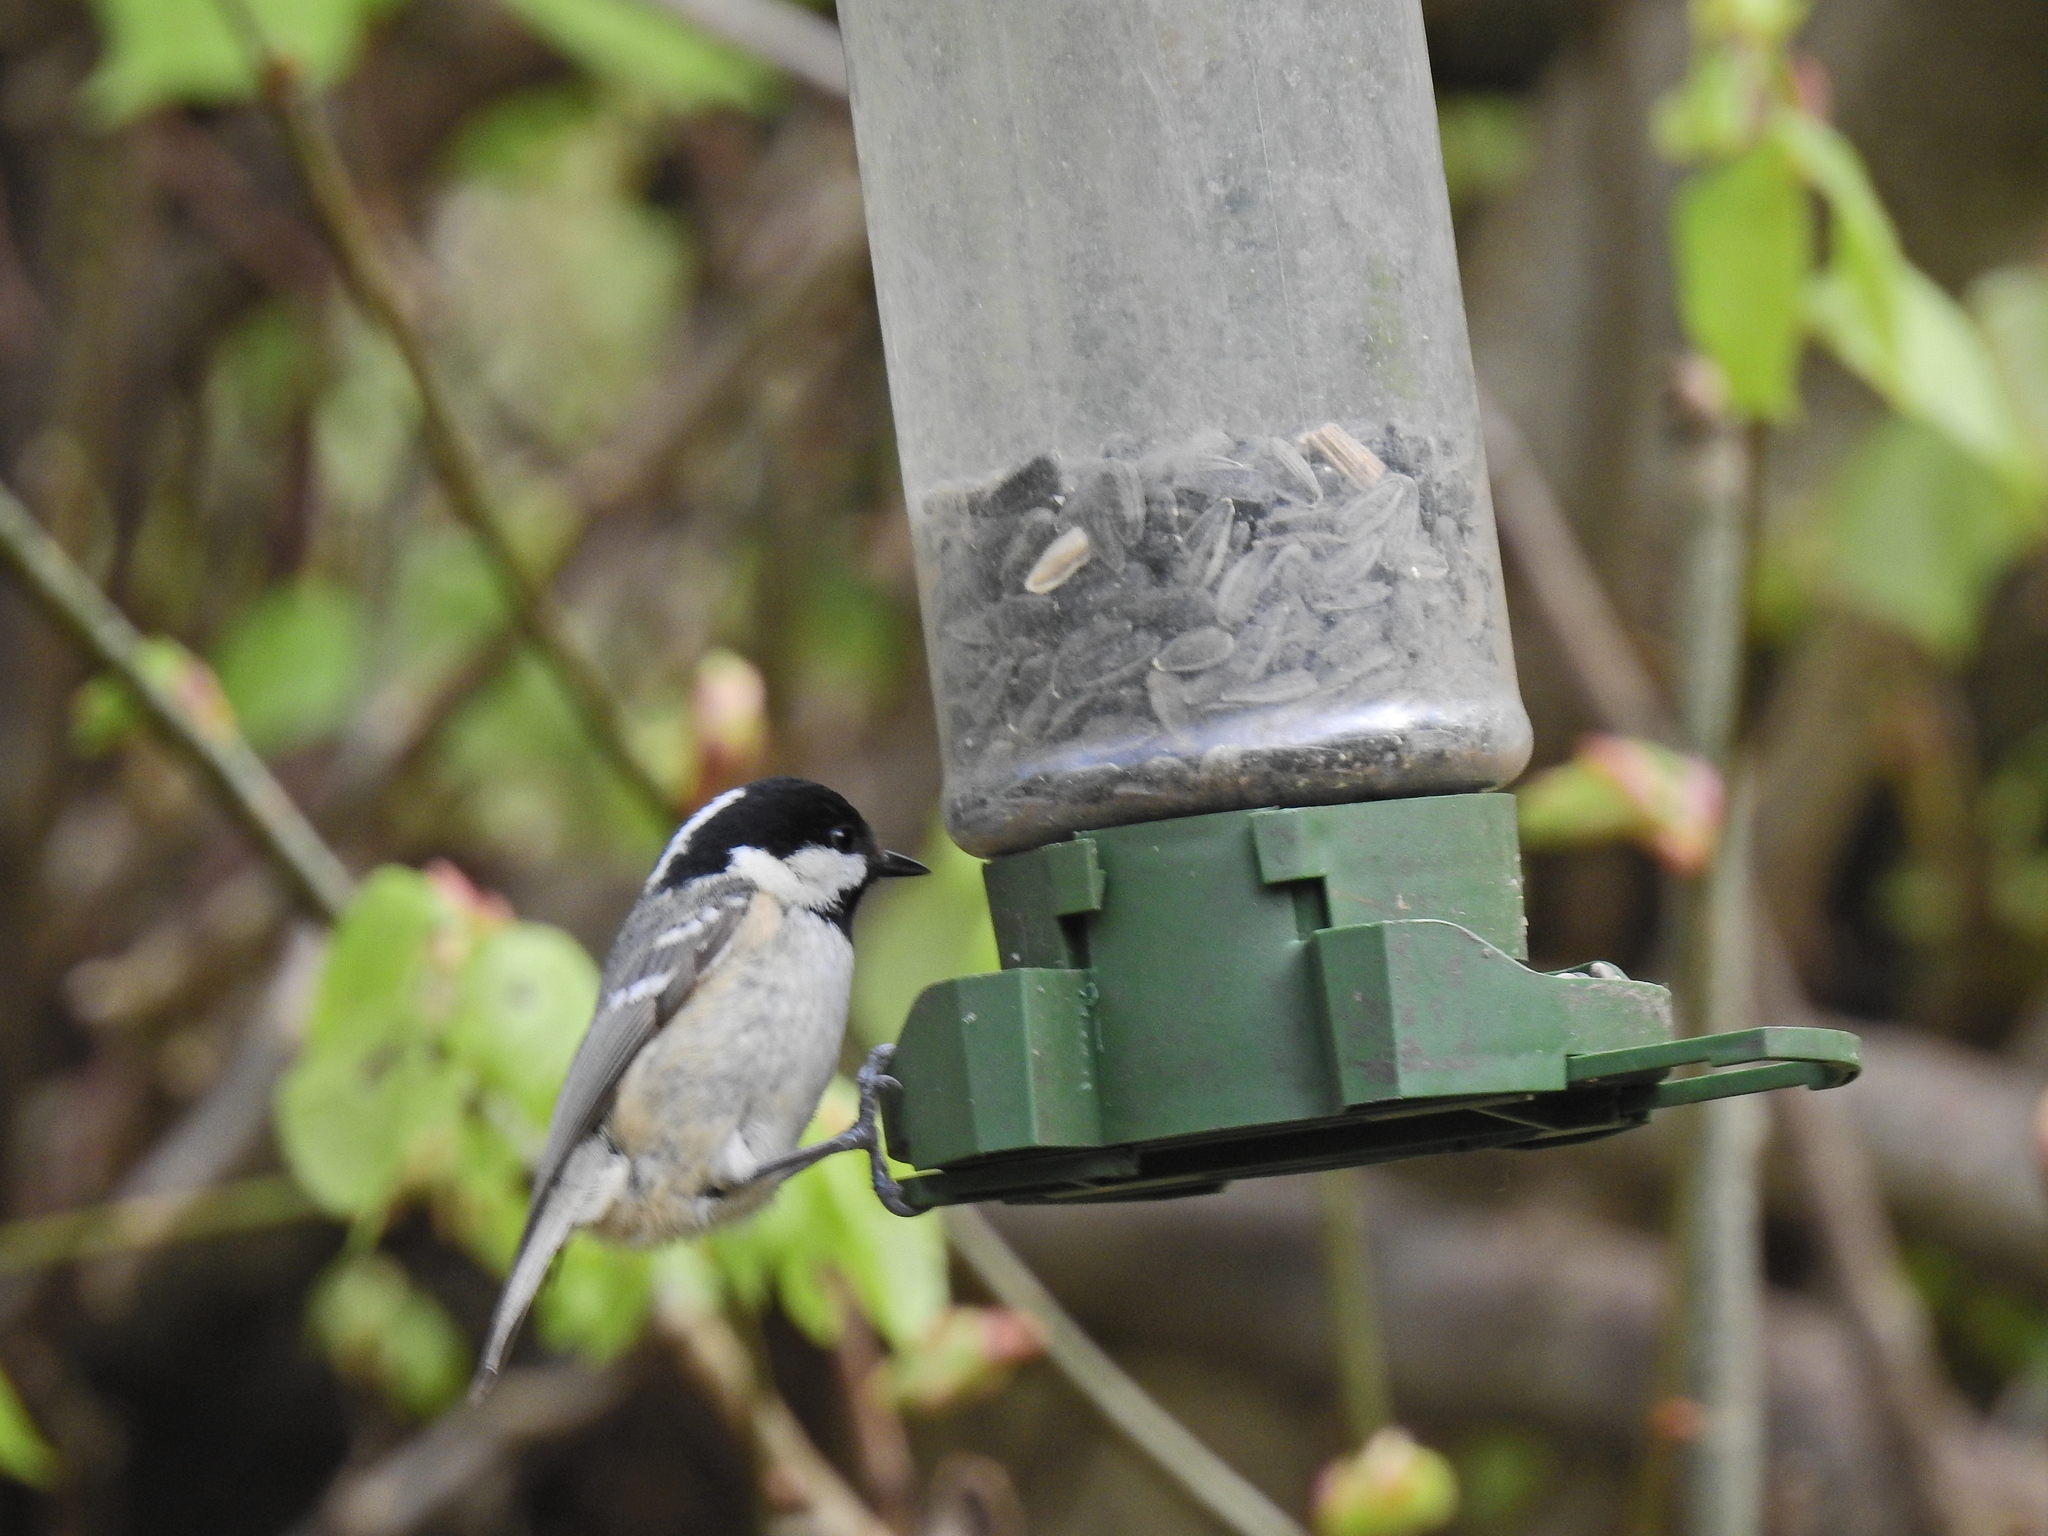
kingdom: Animalia
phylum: Chordata
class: Aves
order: Passeriformes
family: Paridae
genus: Periparus
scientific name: Periparus ater
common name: Coal tit
